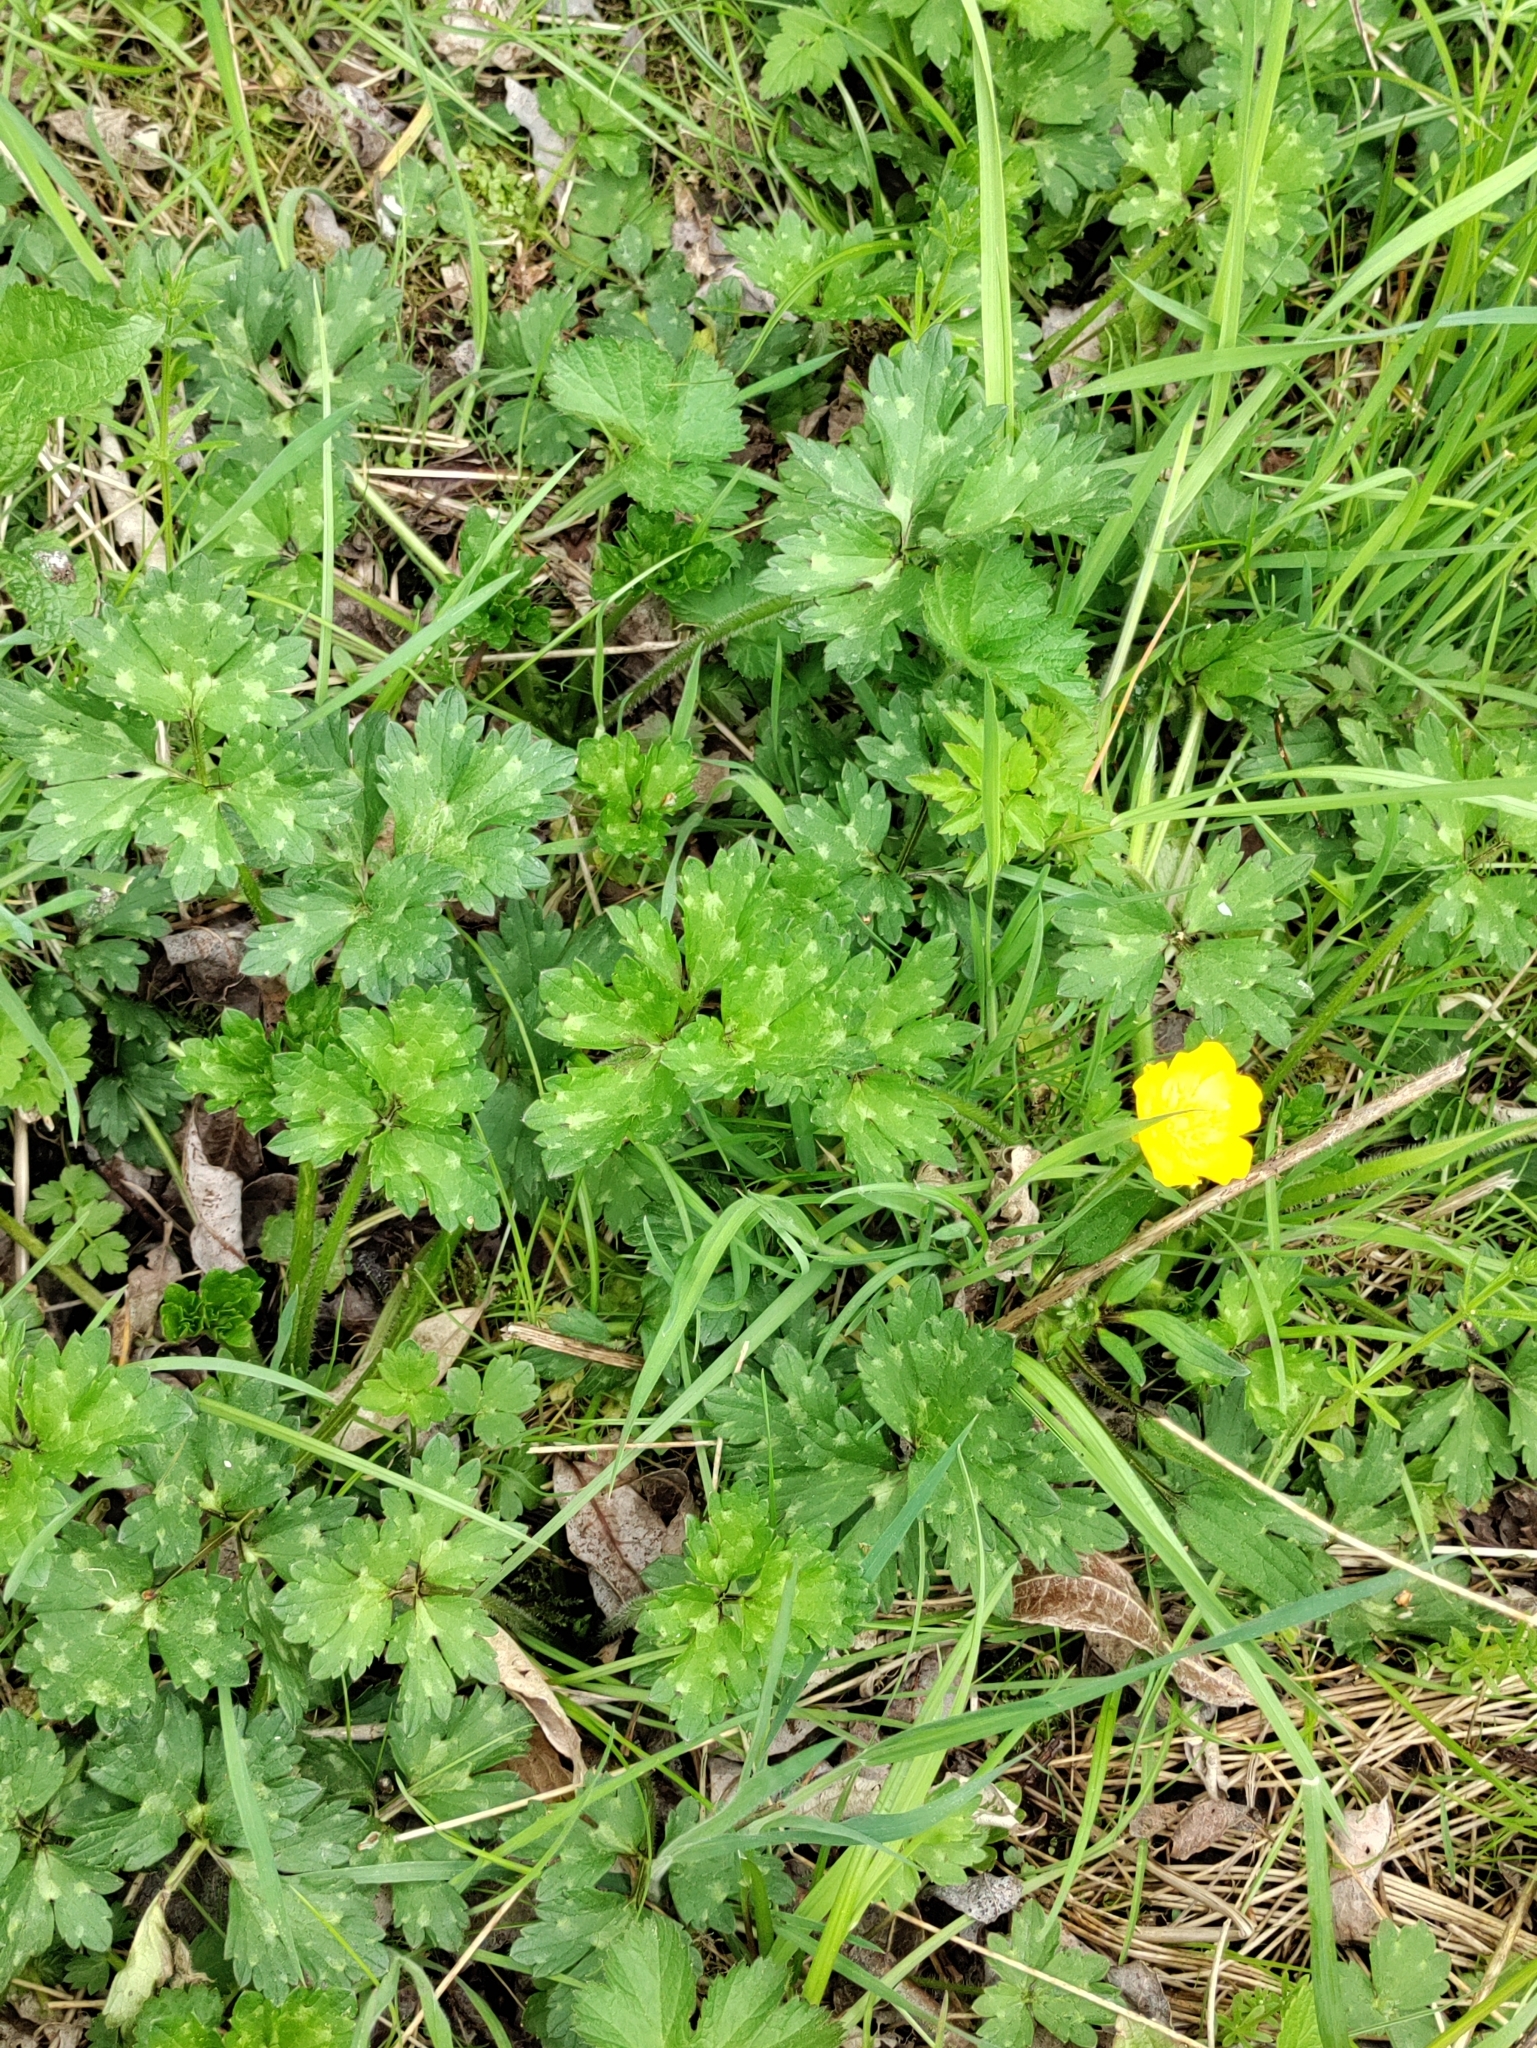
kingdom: Plantae
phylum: Tracheophyta
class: Magnoliopsida
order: Ranunculales
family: Ranunculaceae
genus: Ranunculus
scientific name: Ranunculus repens
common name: Creeping buttercup
